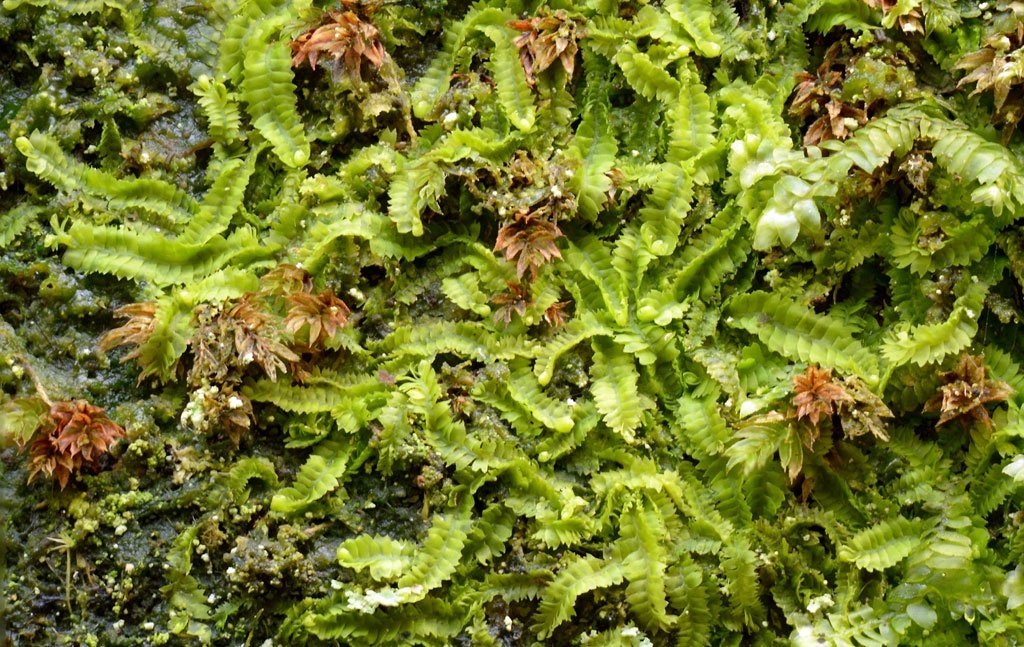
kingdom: Plantae
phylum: Marchantiophyta
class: Jungermanniopsida
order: Jungermanniales
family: Geocalycaceae
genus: Geocalyx
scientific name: Geocalyx graveolens
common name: Turps pouchwort
